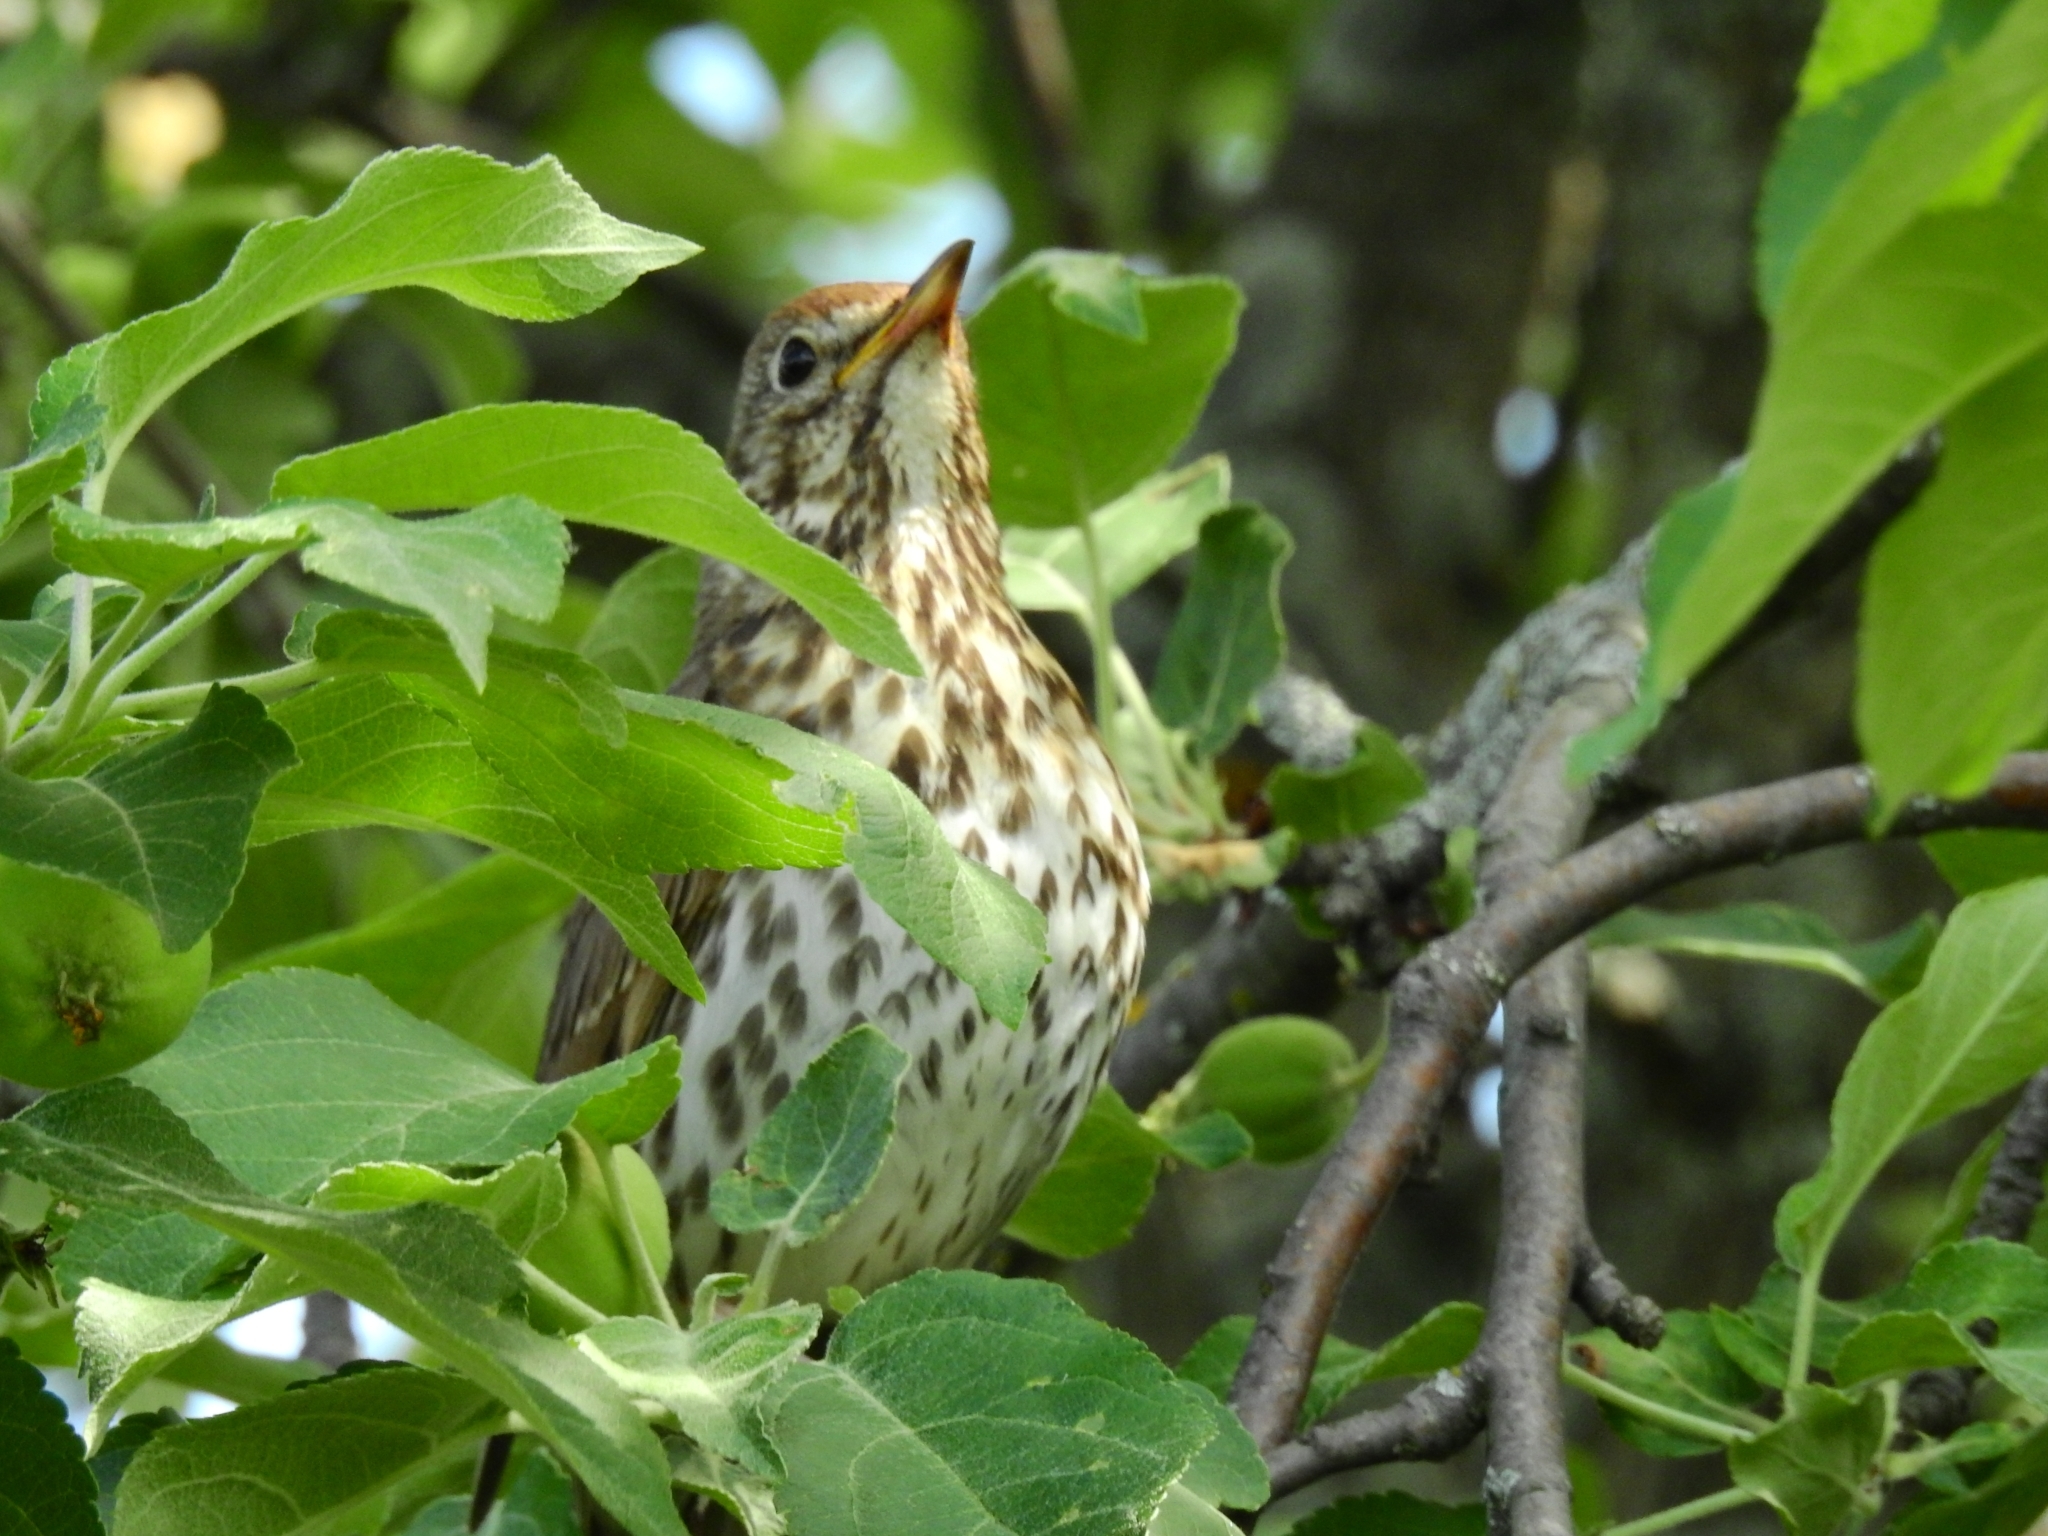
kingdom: Animalia
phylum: Chordata
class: Aves
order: Passeriformes
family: Turdidae
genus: Turdus
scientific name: Turdus philomelos
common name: Song thrush
